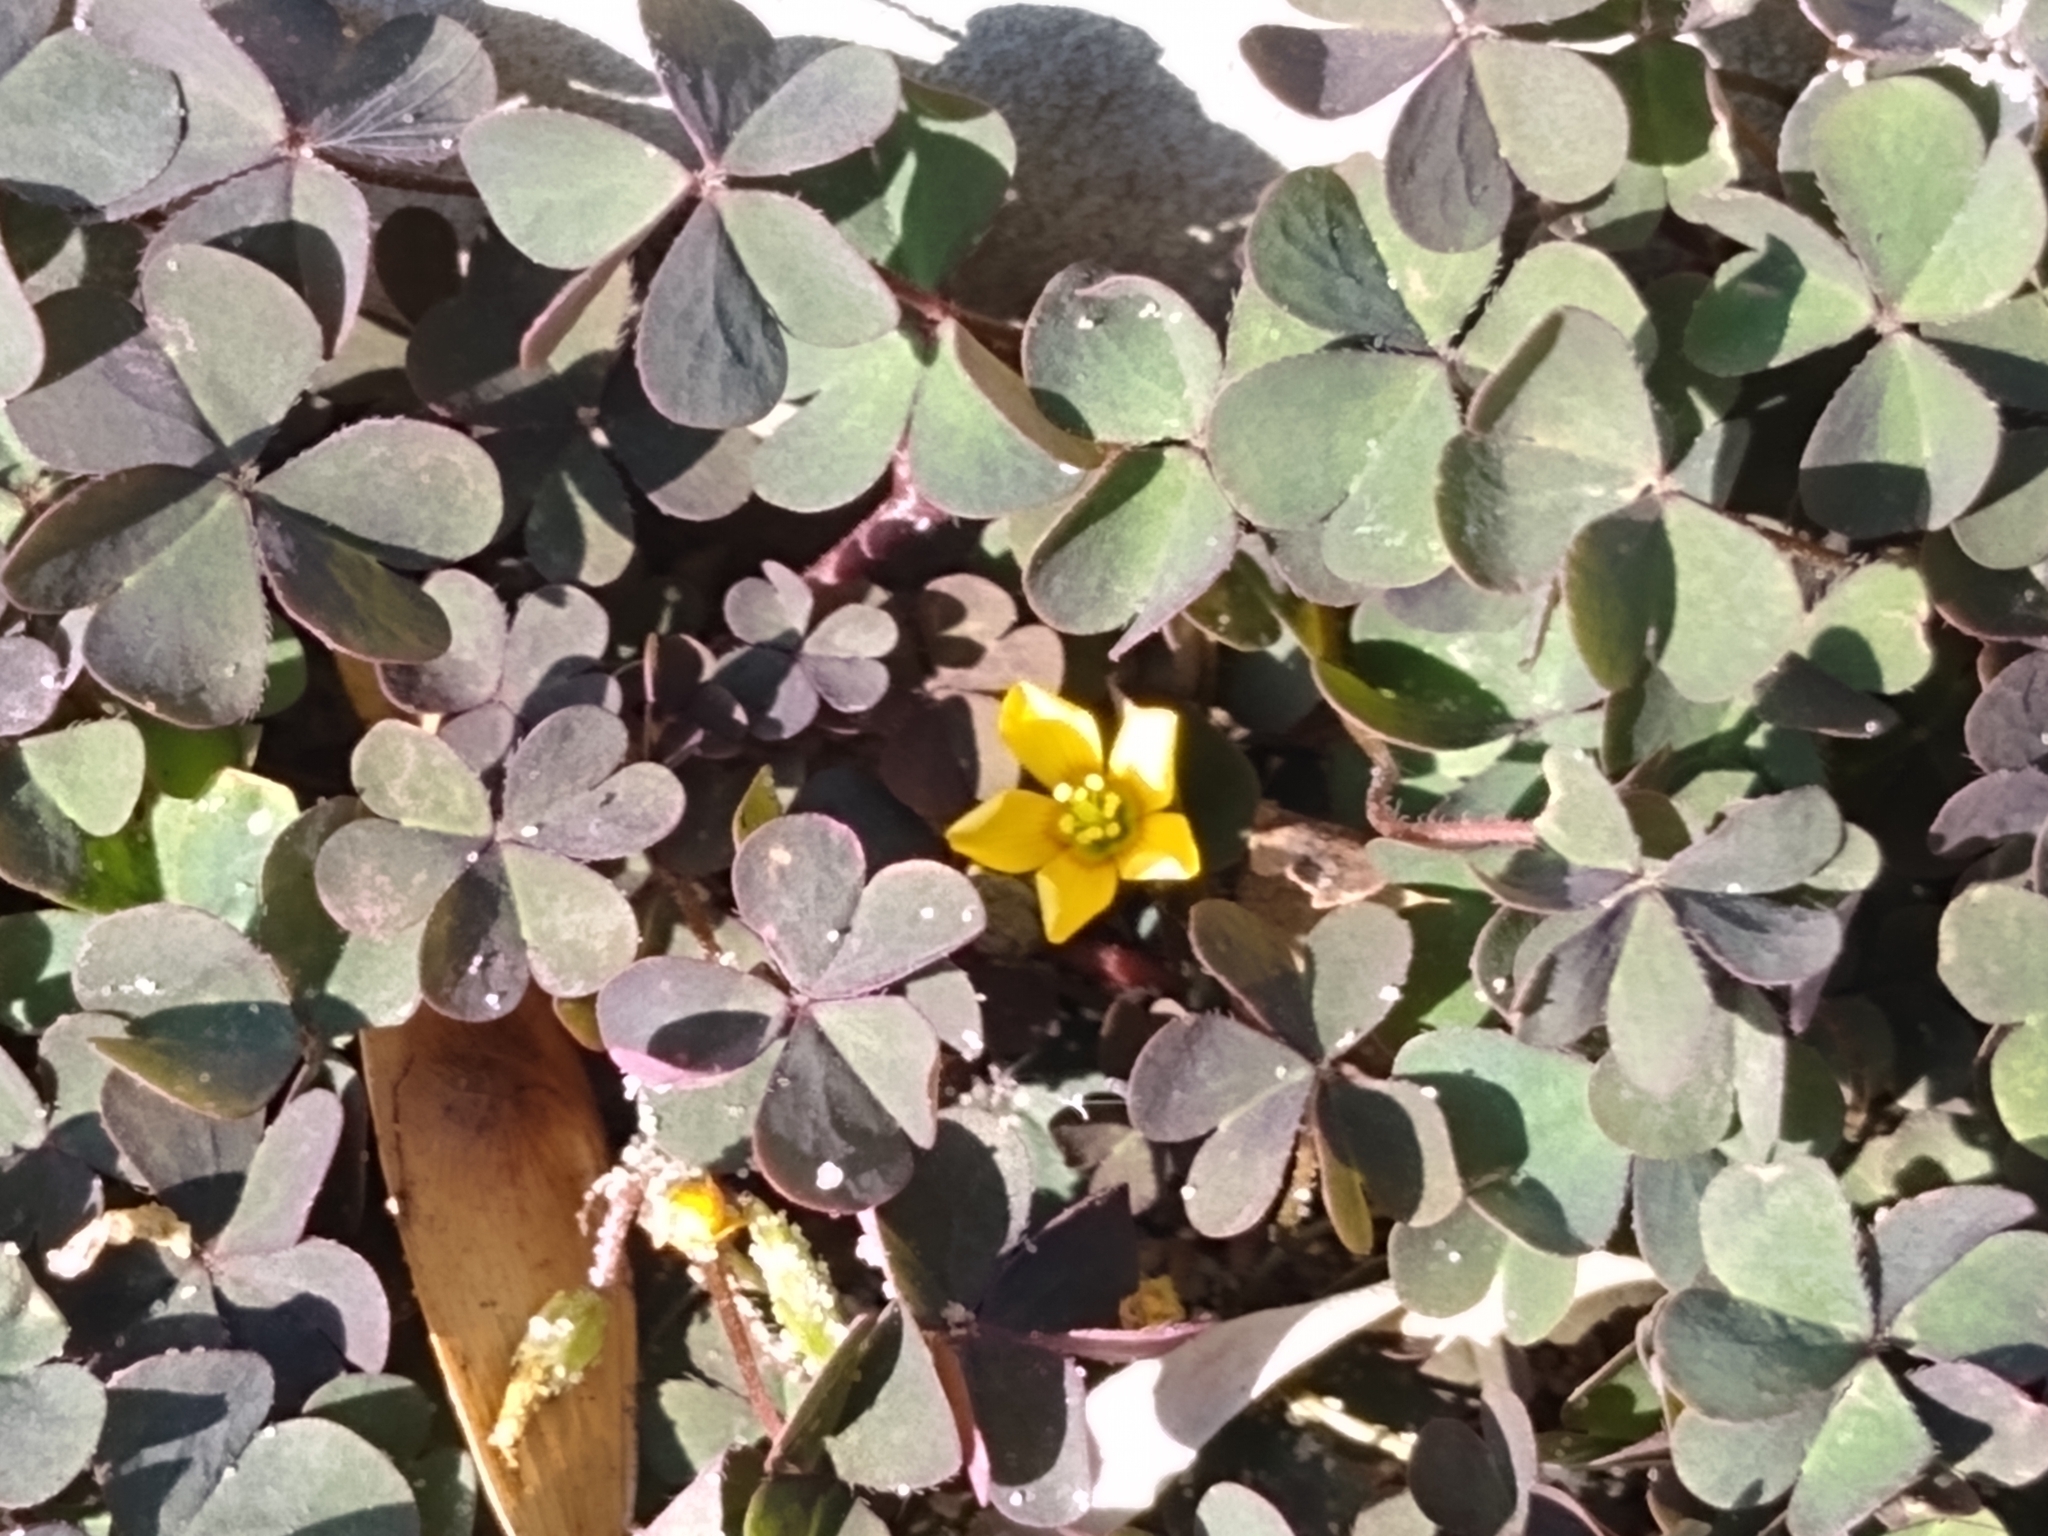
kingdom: Plantae
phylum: Tracheophyta
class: Magnoliopsida
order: Oxalidales
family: Oxalidaceae
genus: Oxalis
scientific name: Oxalis corniculata
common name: Procumbent yellow-sorrel
